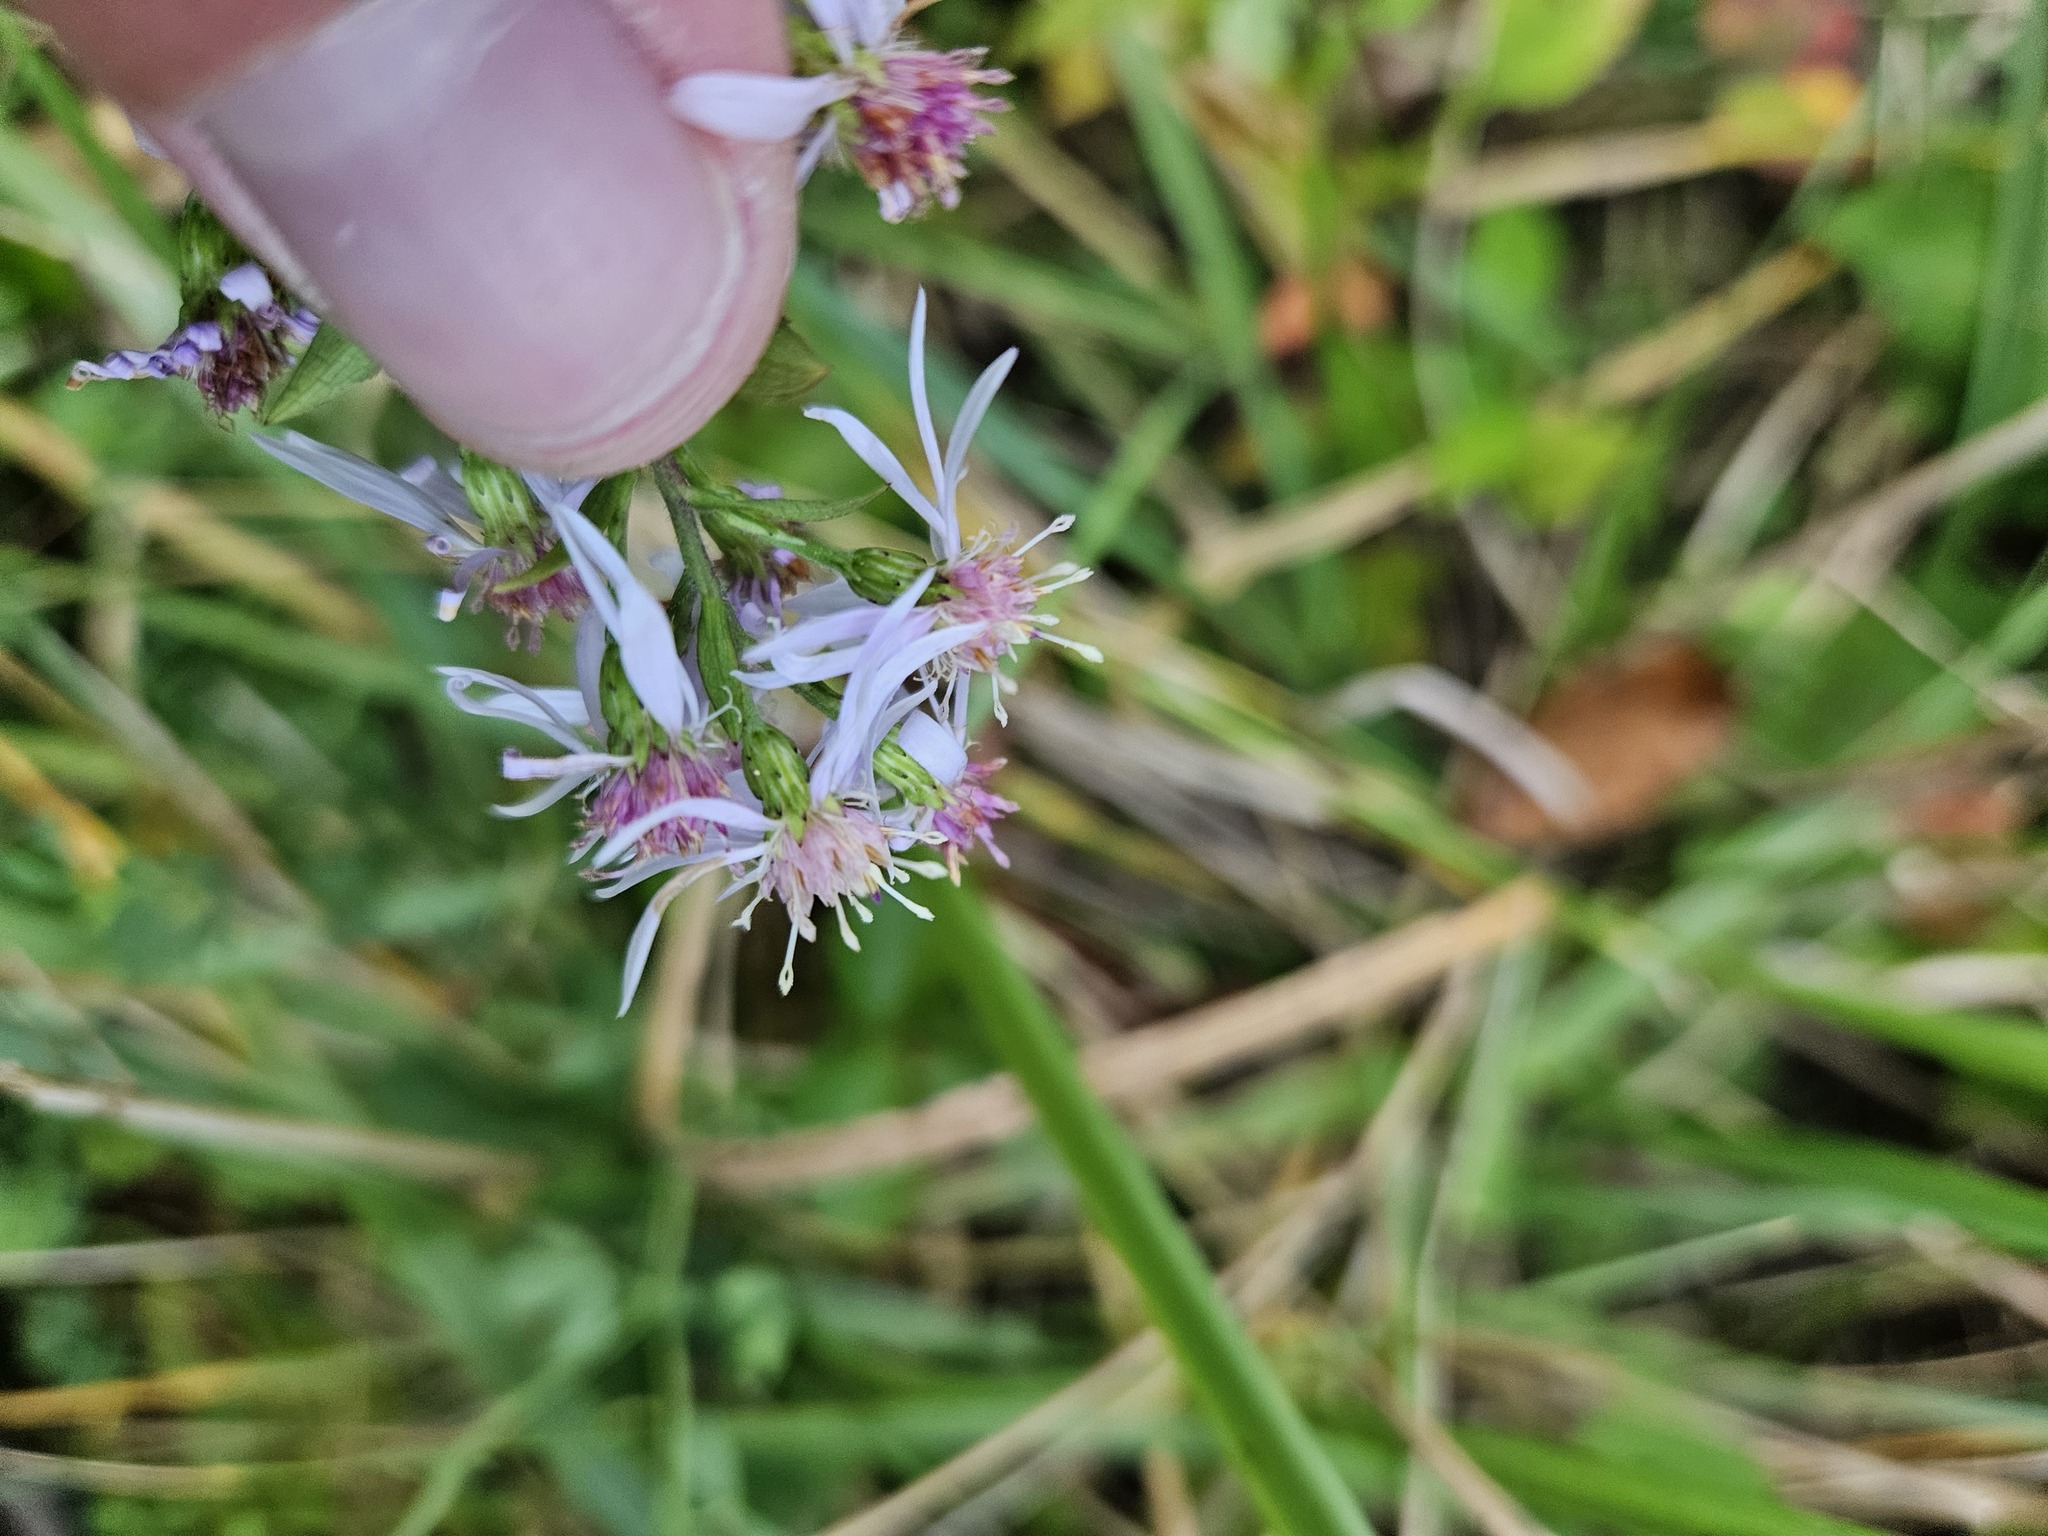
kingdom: Plantae
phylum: Tracheophyta
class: Magnoliopsida
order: Asterales
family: Asteraceae
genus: Symphyotrichum
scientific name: Symphyotrichum cordifolium
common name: Beeweed
